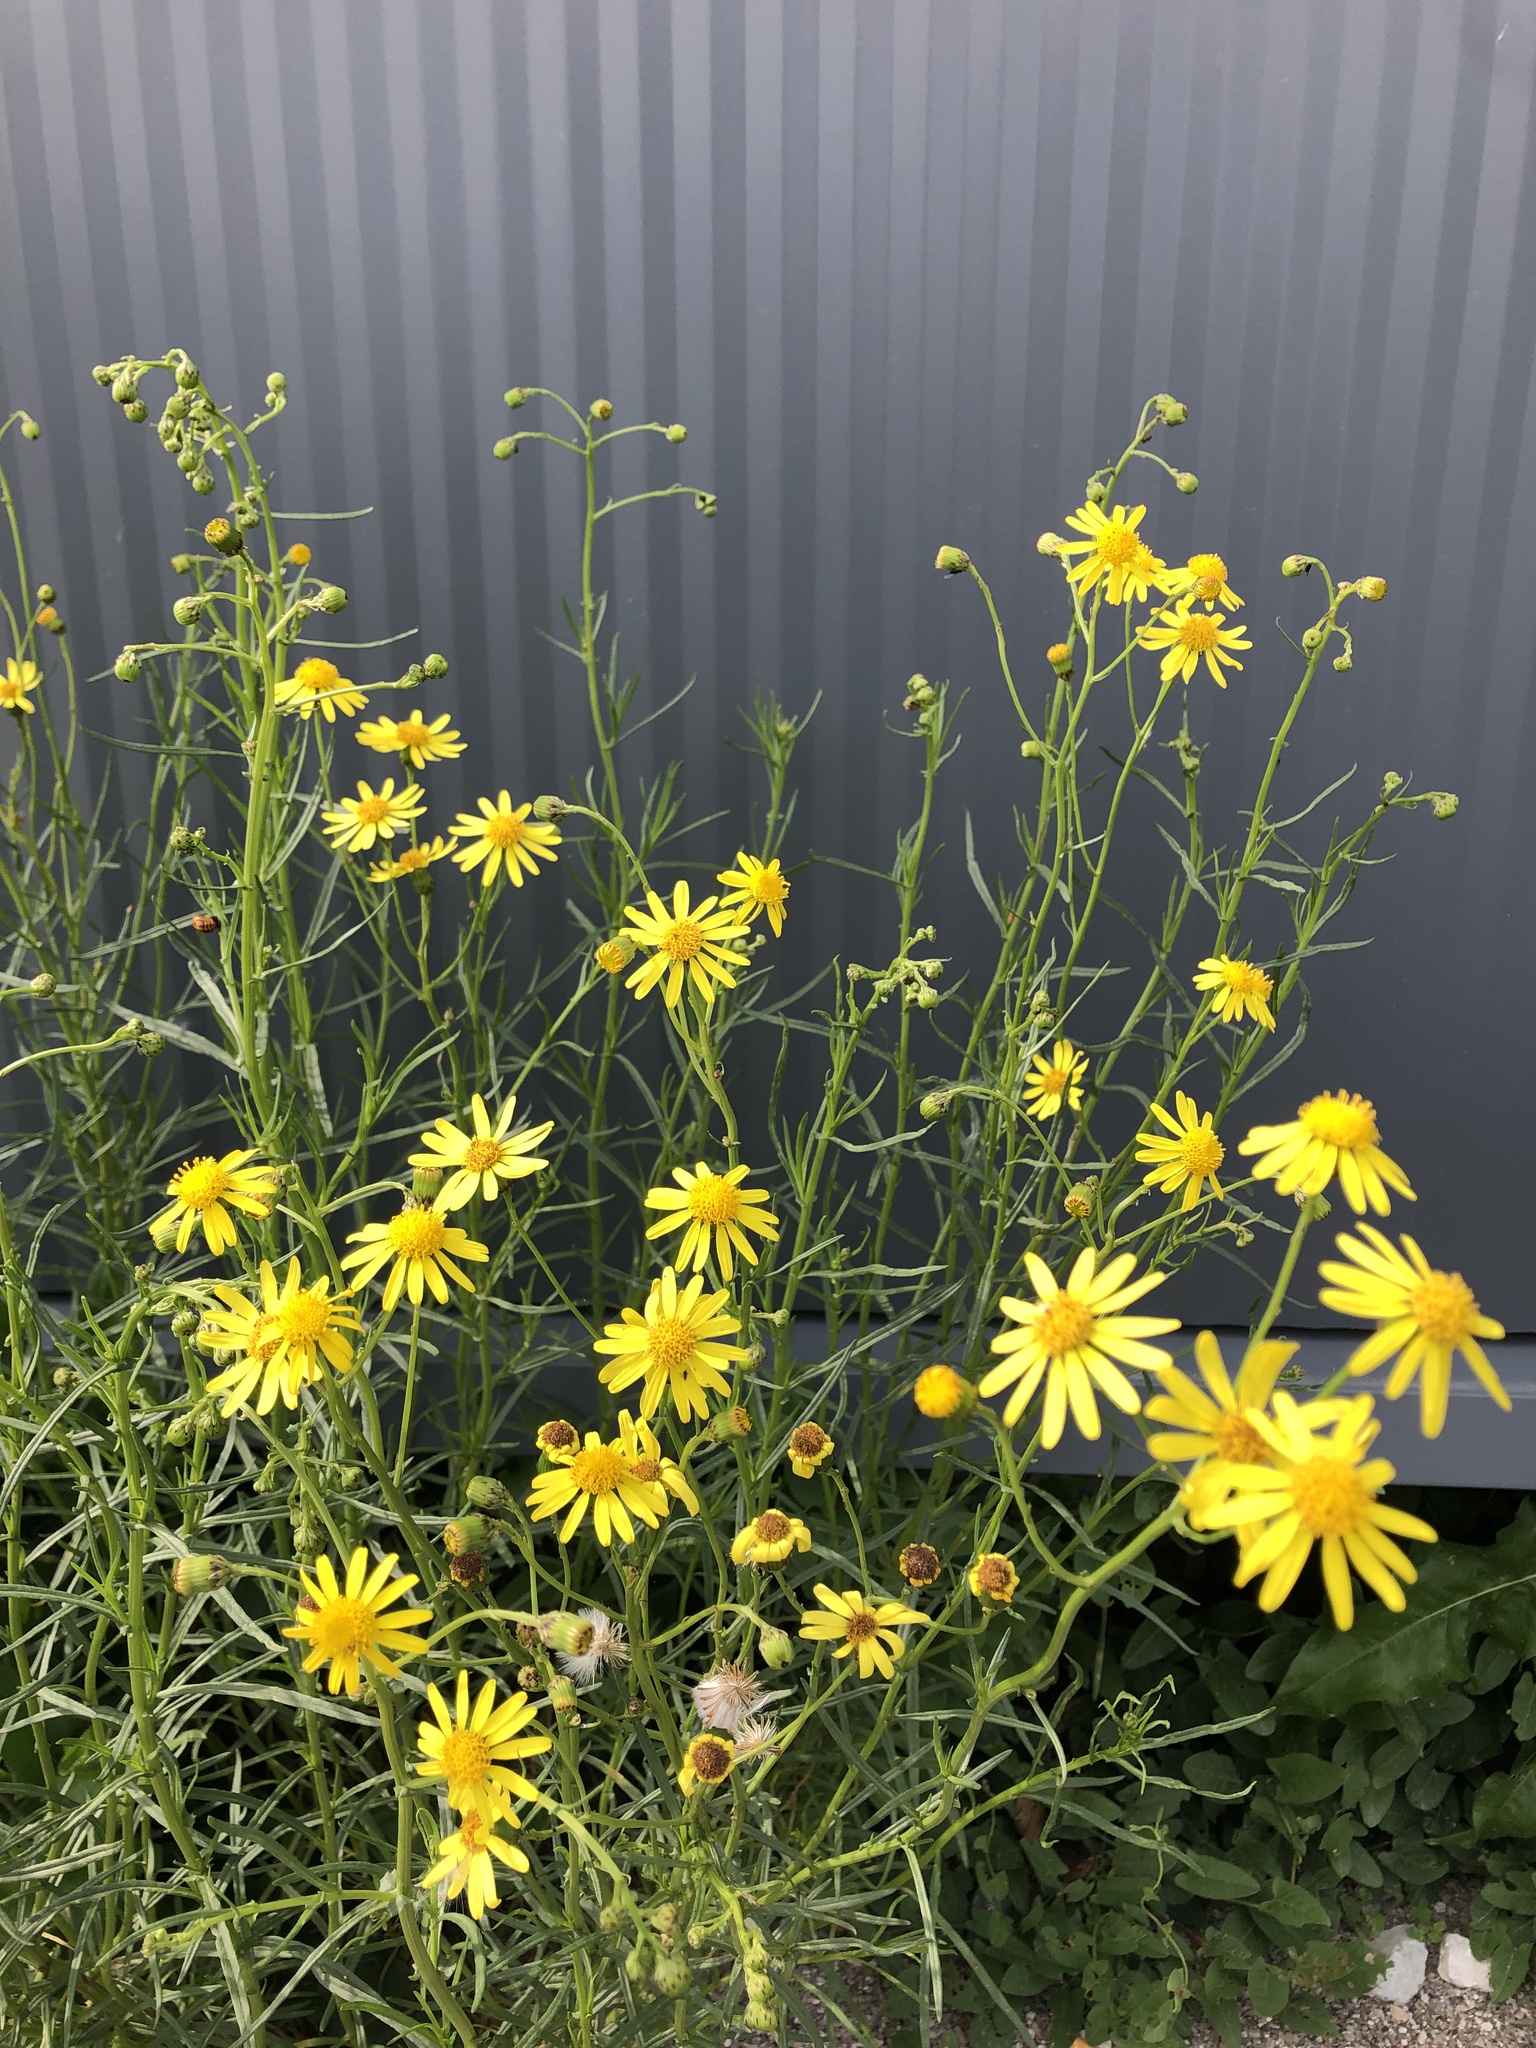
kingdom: Plantae
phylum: Tracheophyta
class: Magnoliopsida
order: Asterales
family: Asteraceae
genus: Senecio
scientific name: Senecio inaequidens
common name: Narrow-leaved ragwort
